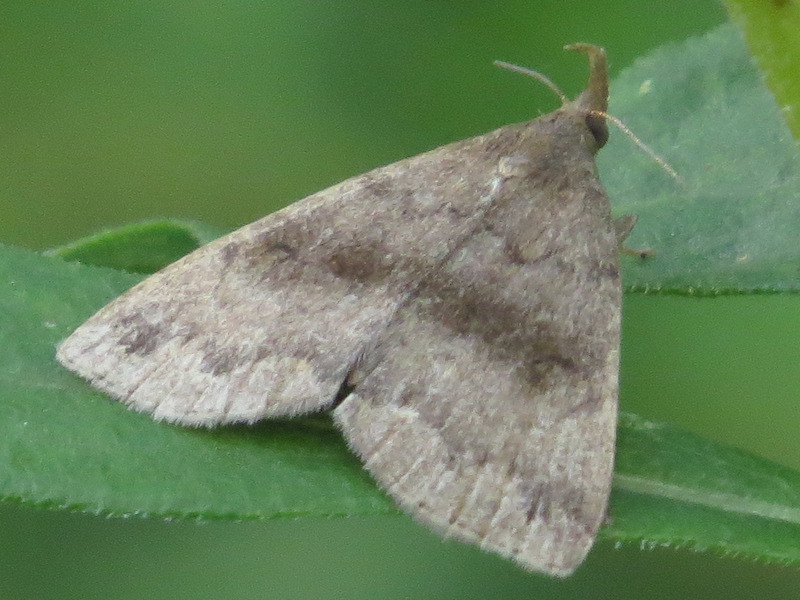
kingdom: Animalia
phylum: Arthropoda
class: Insecta
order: Lepidoptera
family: Erebidae
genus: Phalaenostola
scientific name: Phalaenostola eumelusalis
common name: Dark phalaenostola moth
